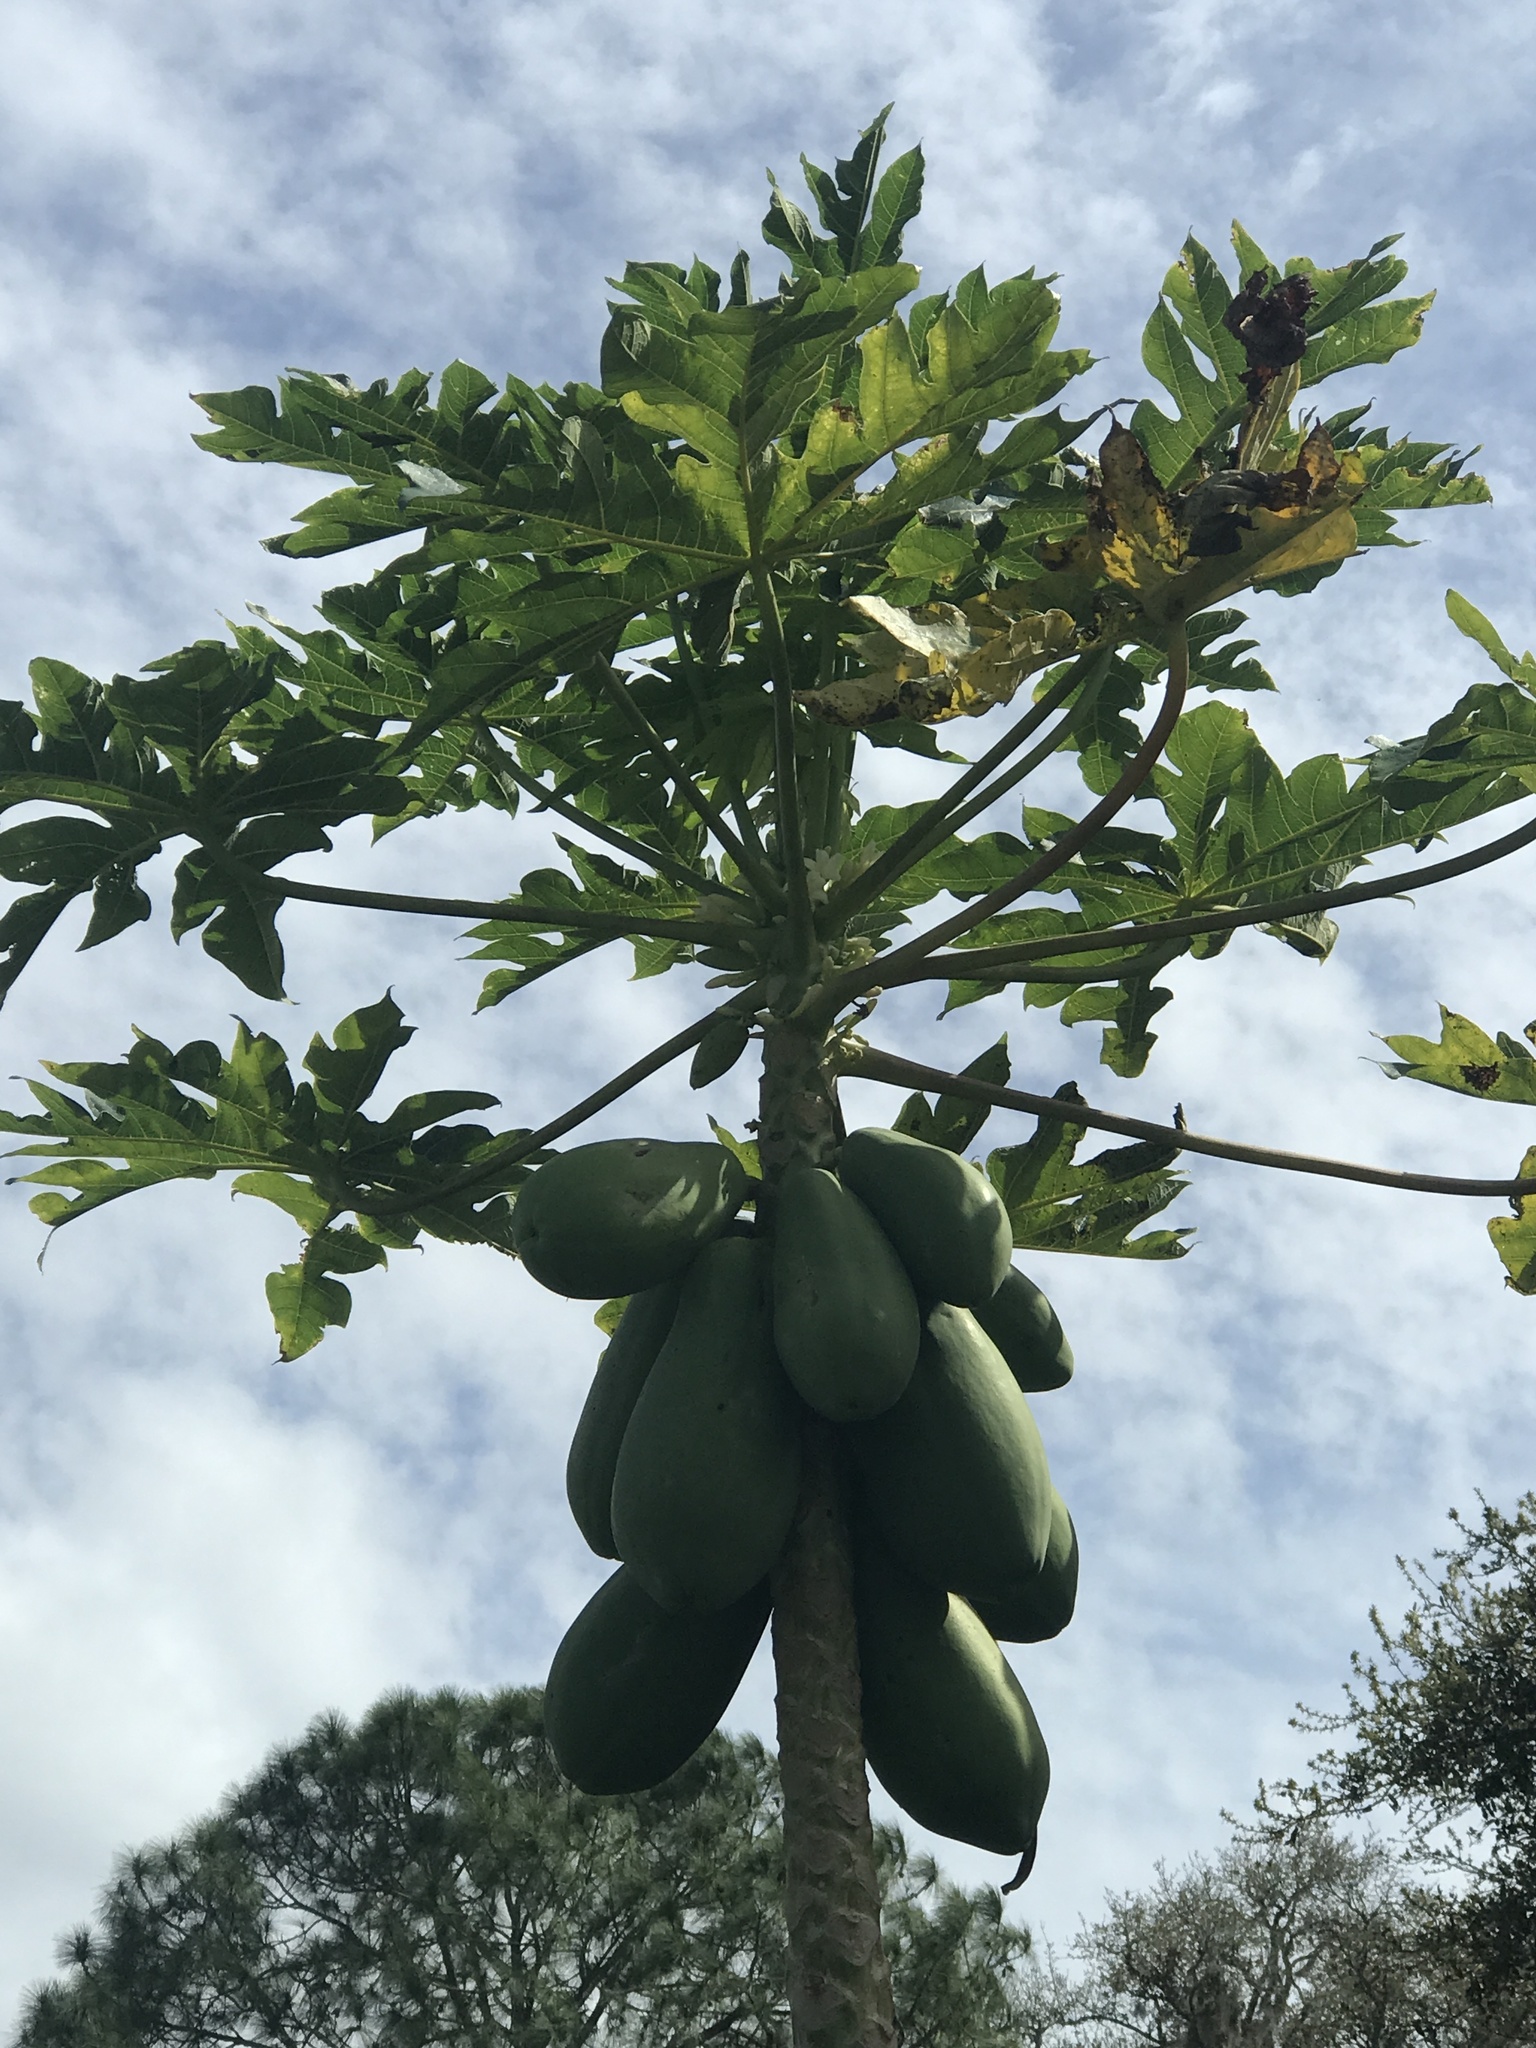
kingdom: Plantae
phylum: Tracheophyta
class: Magnoliopsida
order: Brassicales
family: Caricaceae
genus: Carica
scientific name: Carica papaya
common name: Papaya
